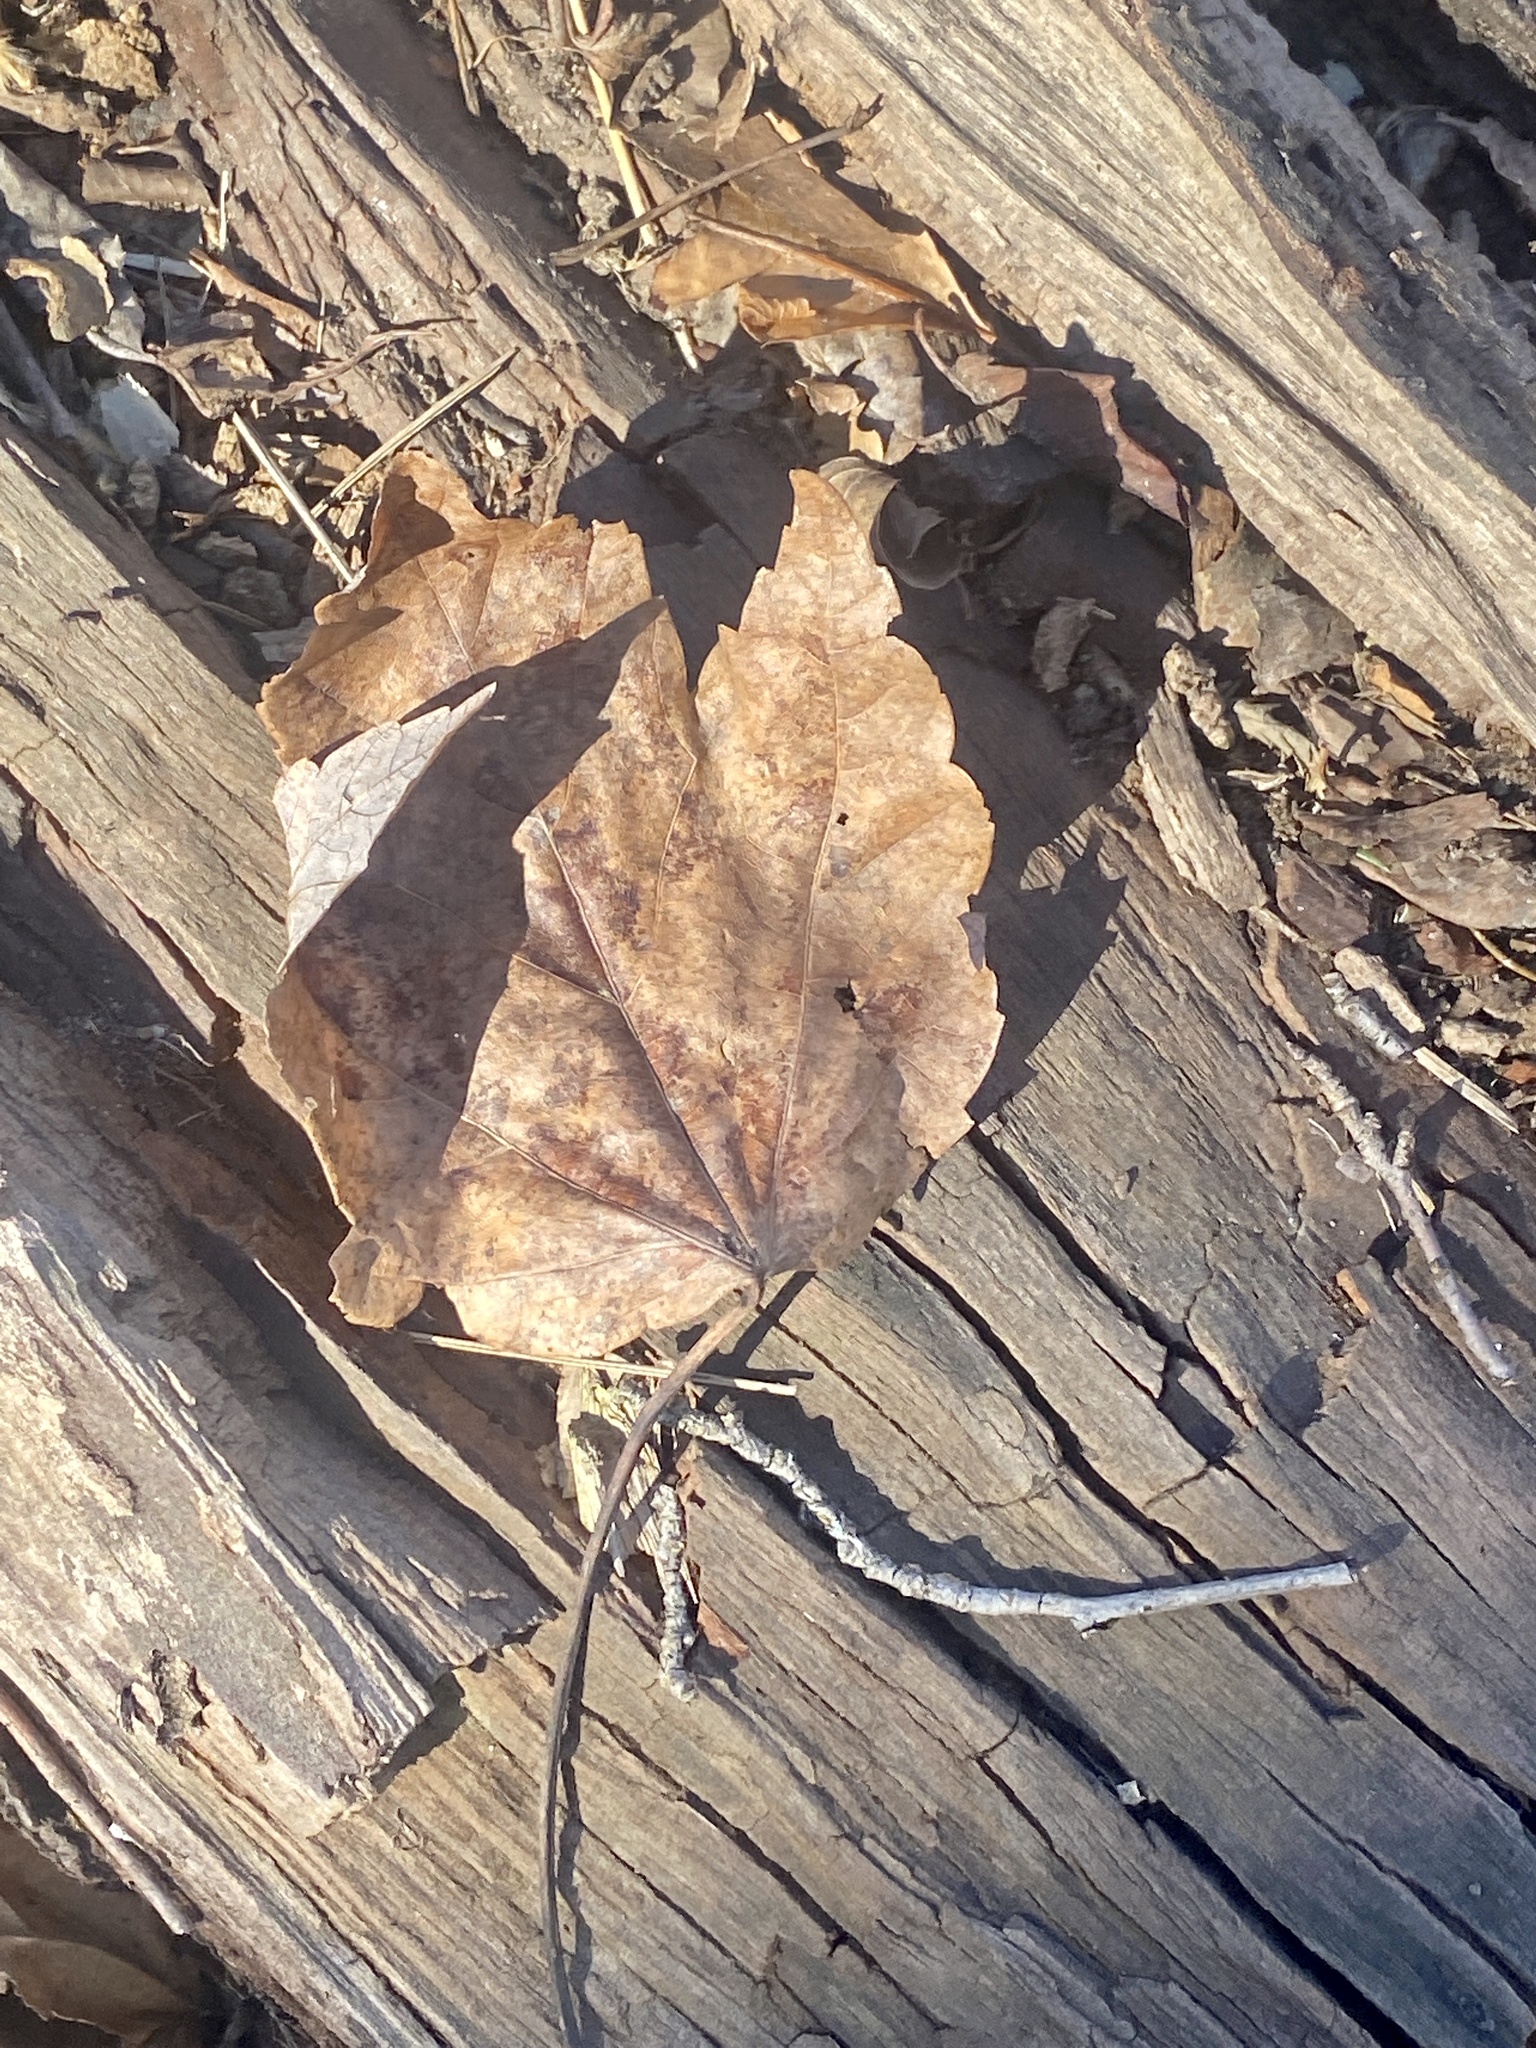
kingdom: Plantae
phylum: Tracheophyta
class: Magnoliopsida
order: Sapindales
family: Sapindaceae
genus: Acer
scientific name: Acer rubrum
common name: Red maple
